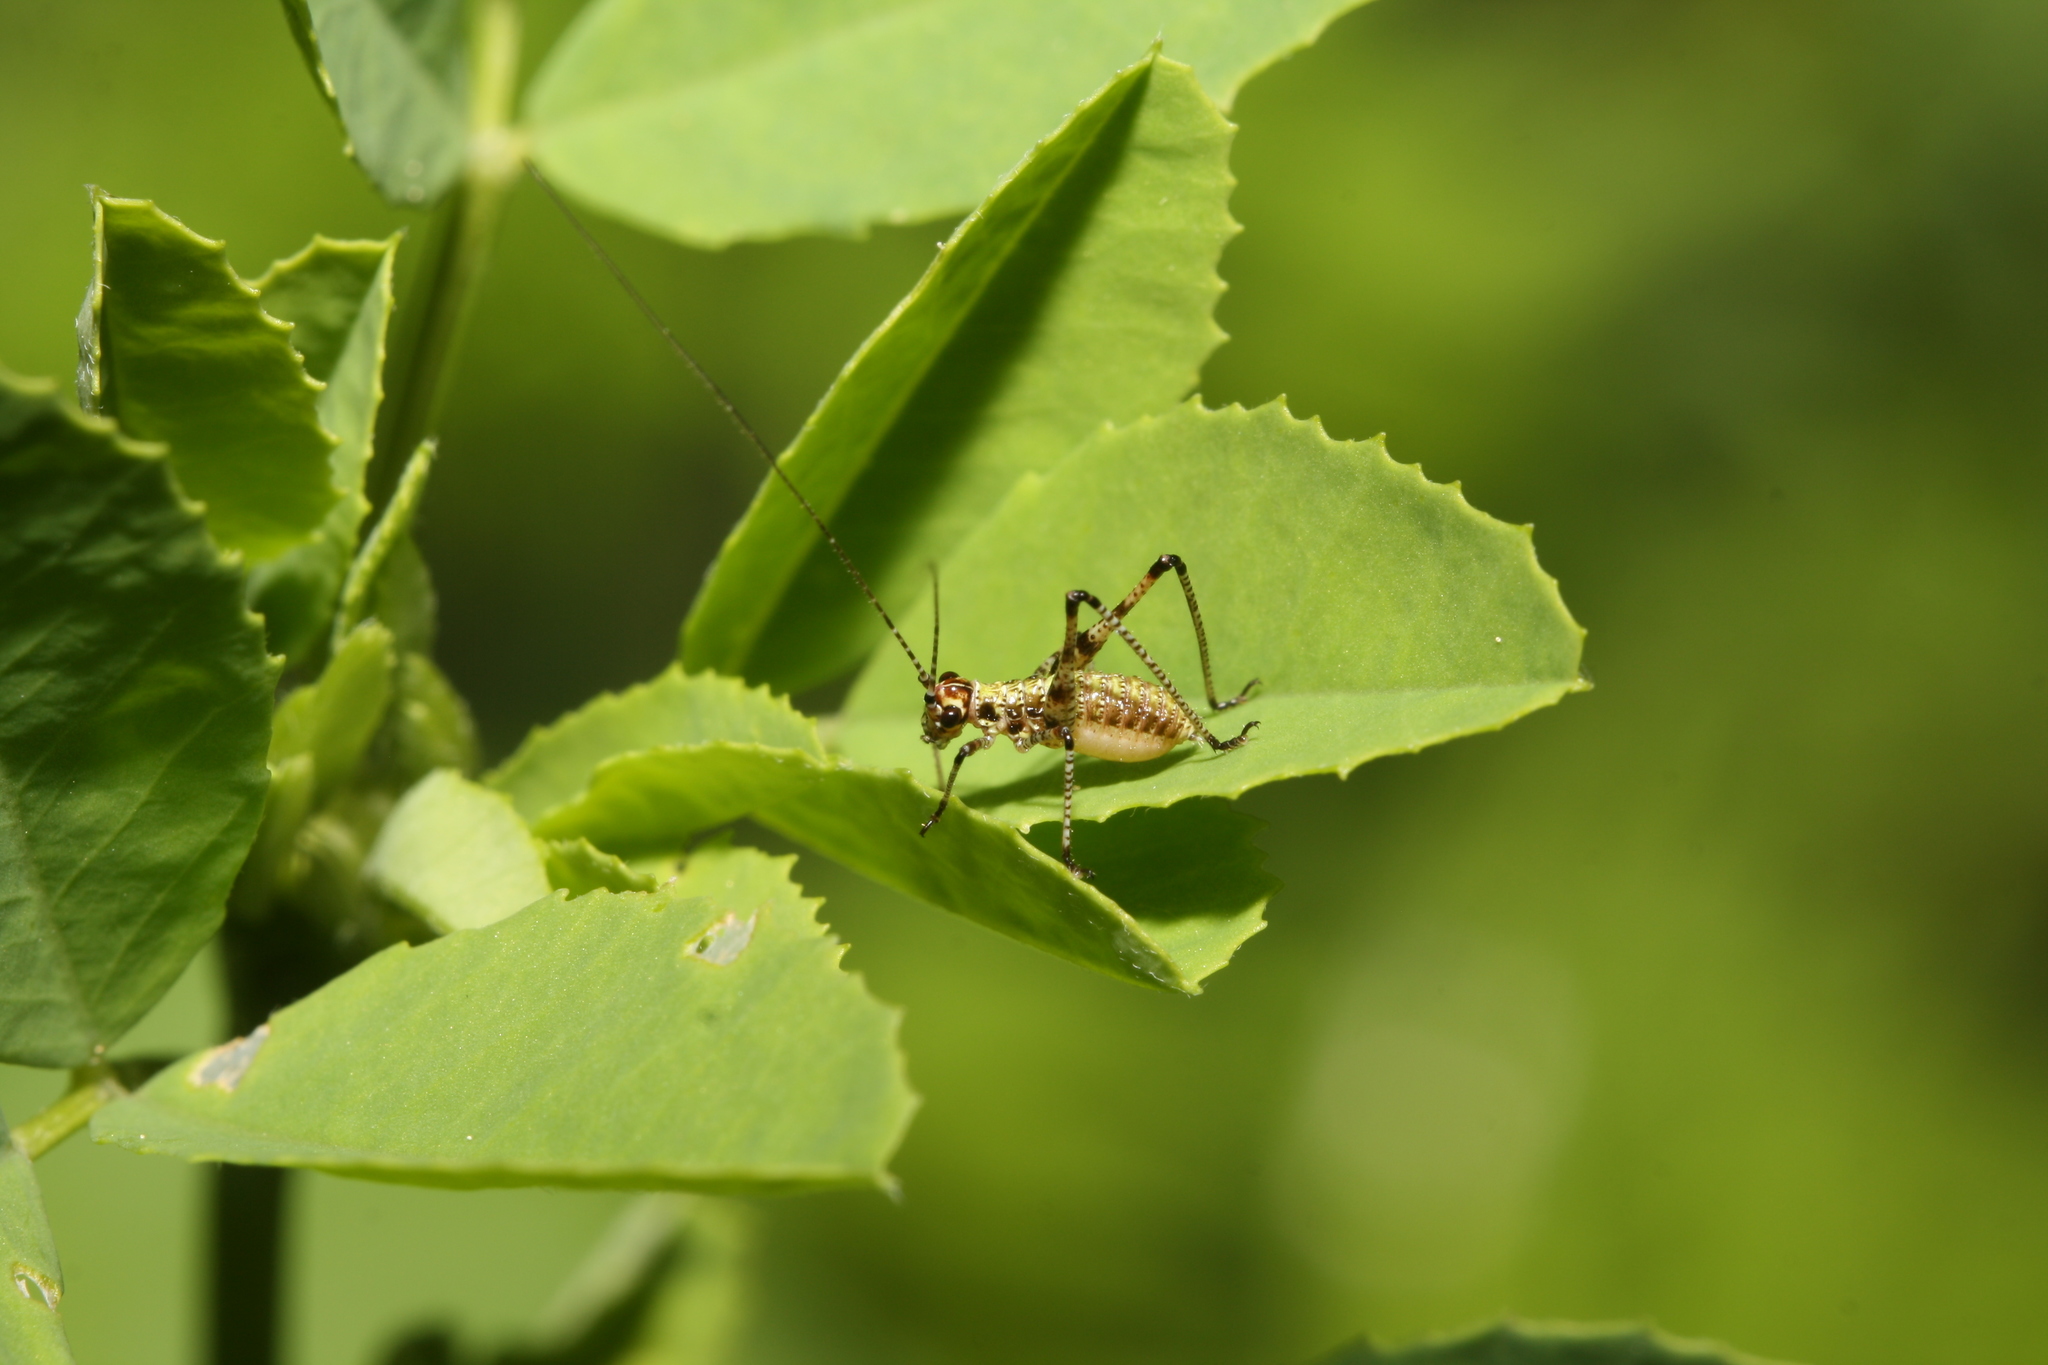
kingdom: Animalia
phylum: Arthropoda
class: Insecta
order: Orthoptera
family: Tettigoniidae
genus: Phaneroptera
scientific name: Phaneroptera nana
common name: Southern sickle bush-cricket
